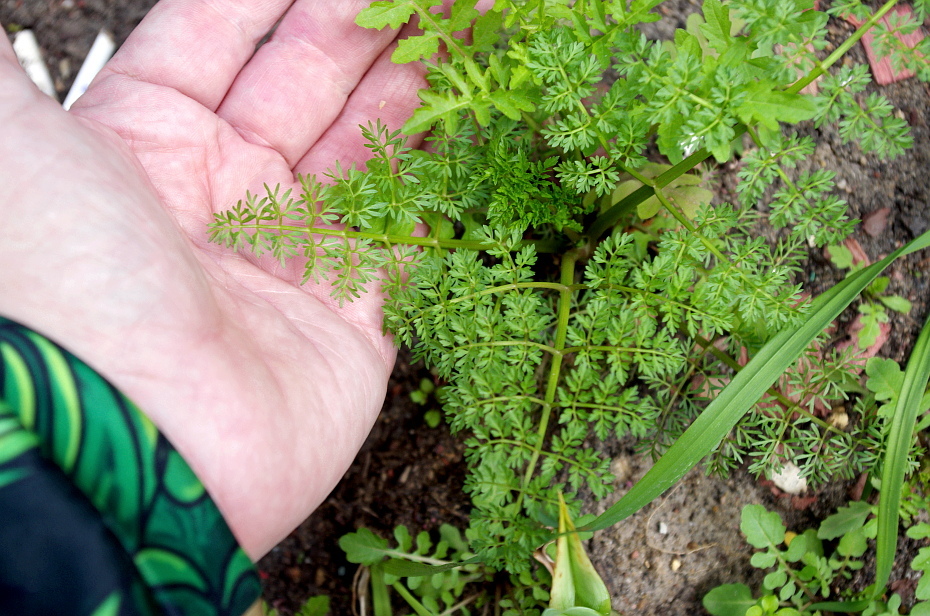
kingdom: Plantae
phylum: Tracheophyta
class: Magnoliopsida
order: Apiales
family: Apiaceae
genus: Oenanthe
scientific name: Oenanthe aquatica
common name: Fine-leaved water-dropwort
